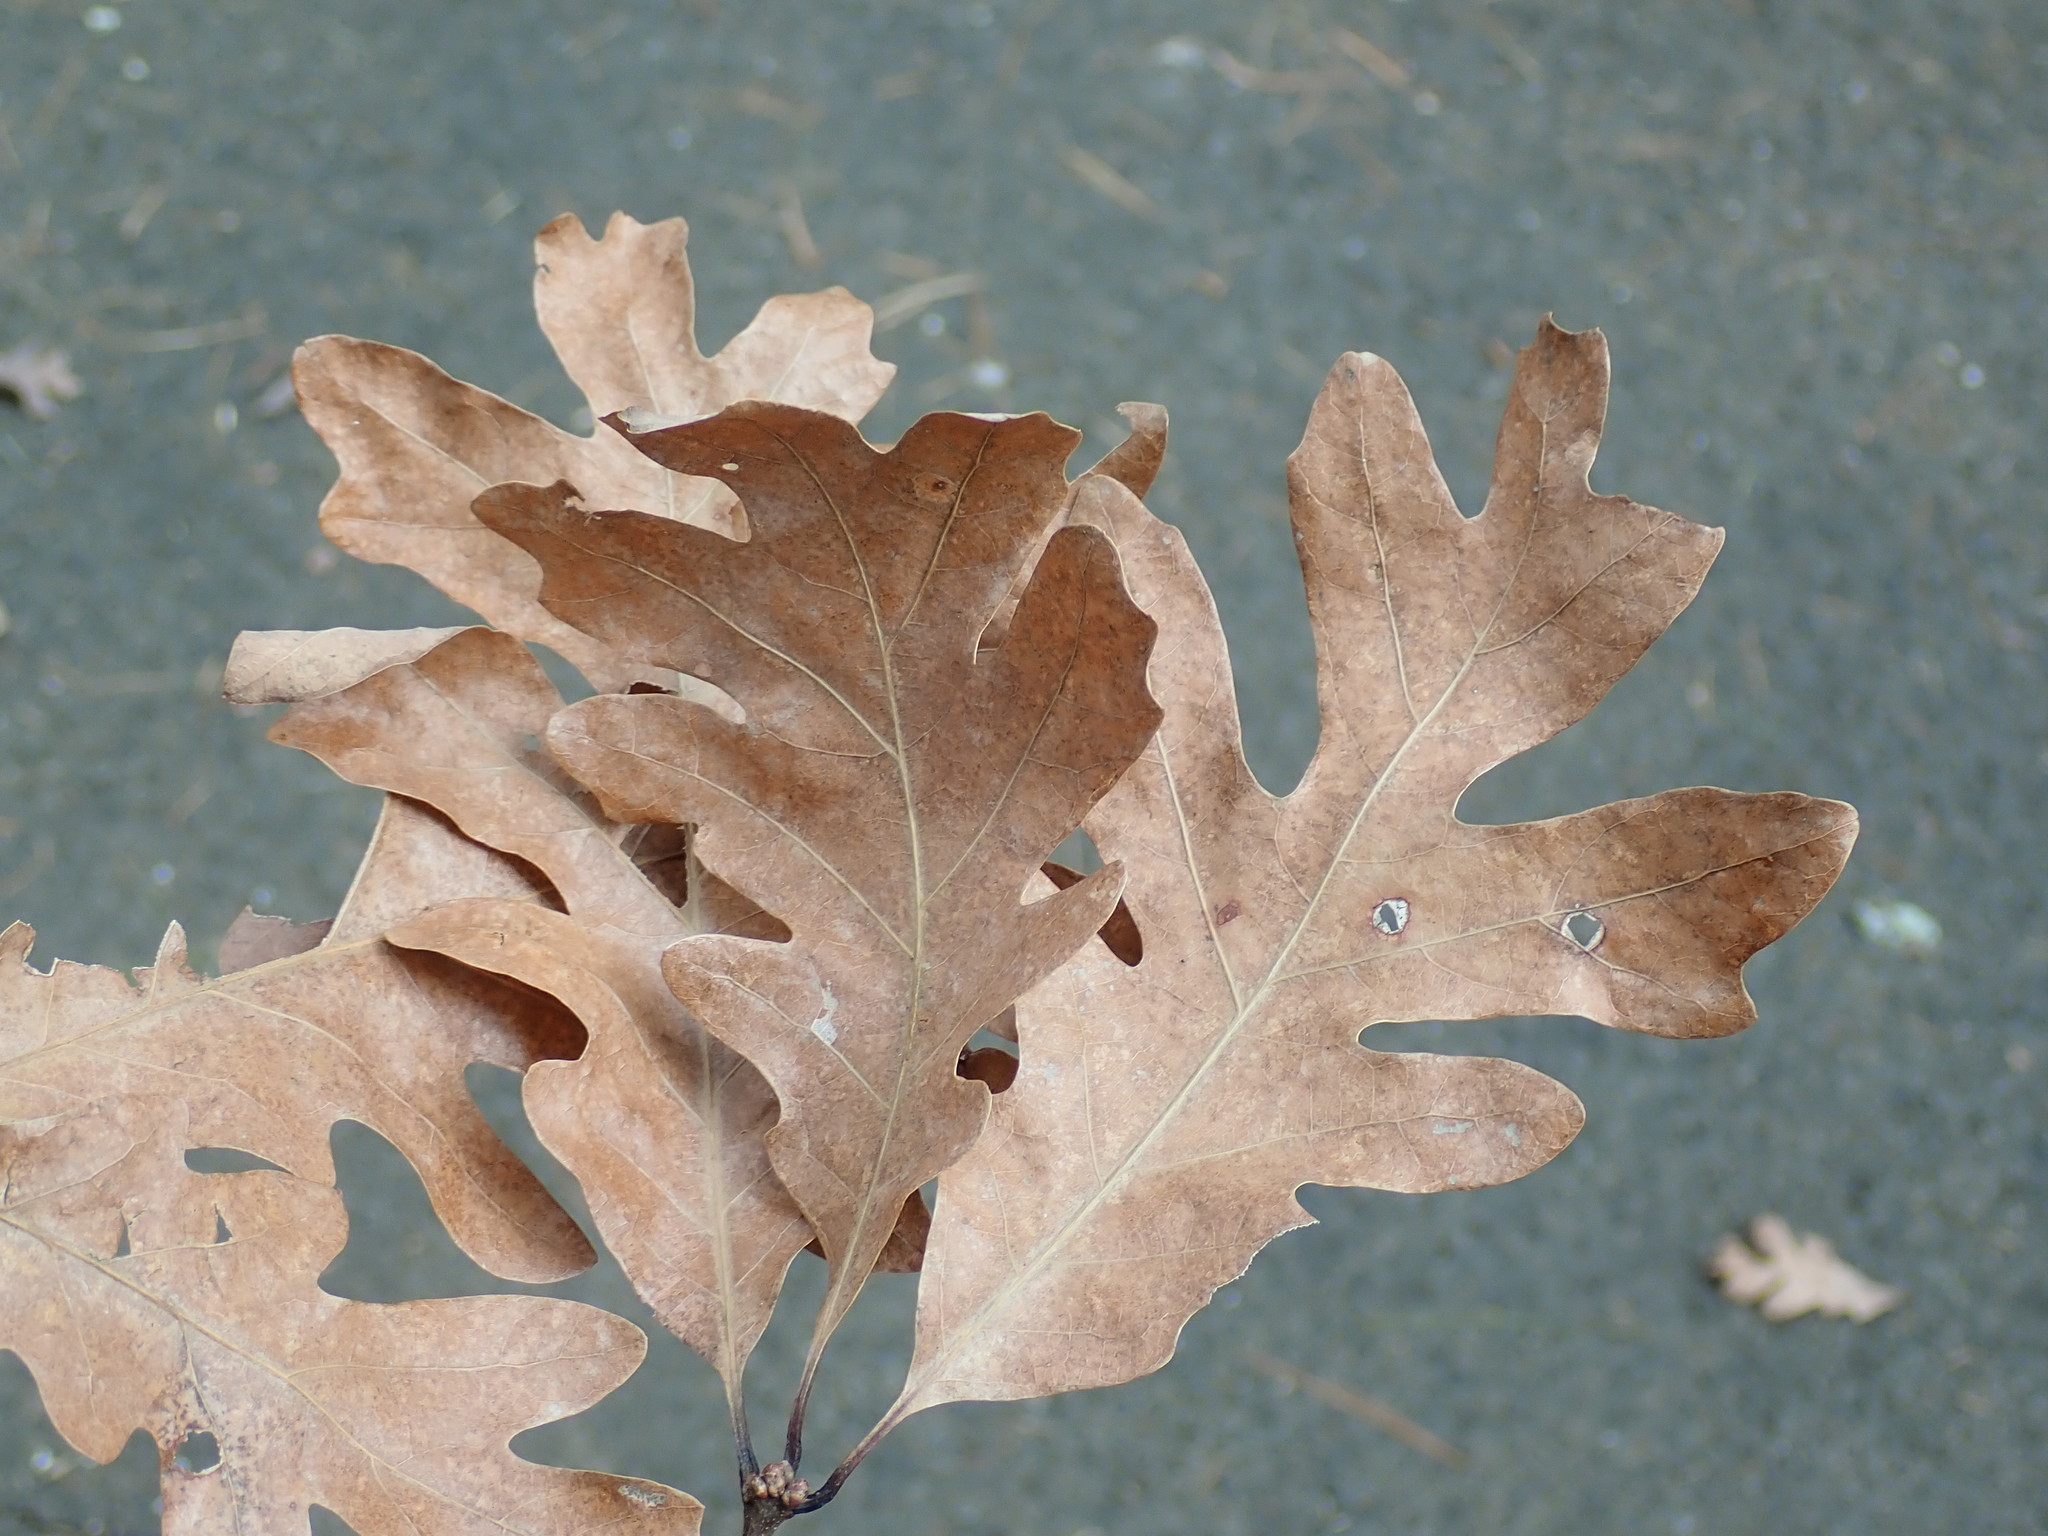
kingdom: Plantae
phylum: Tracheophyta
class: Magnoliopsida
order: Fagales
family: Fagaceae
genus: Quercus
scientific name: Quercus alba
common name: White oak
